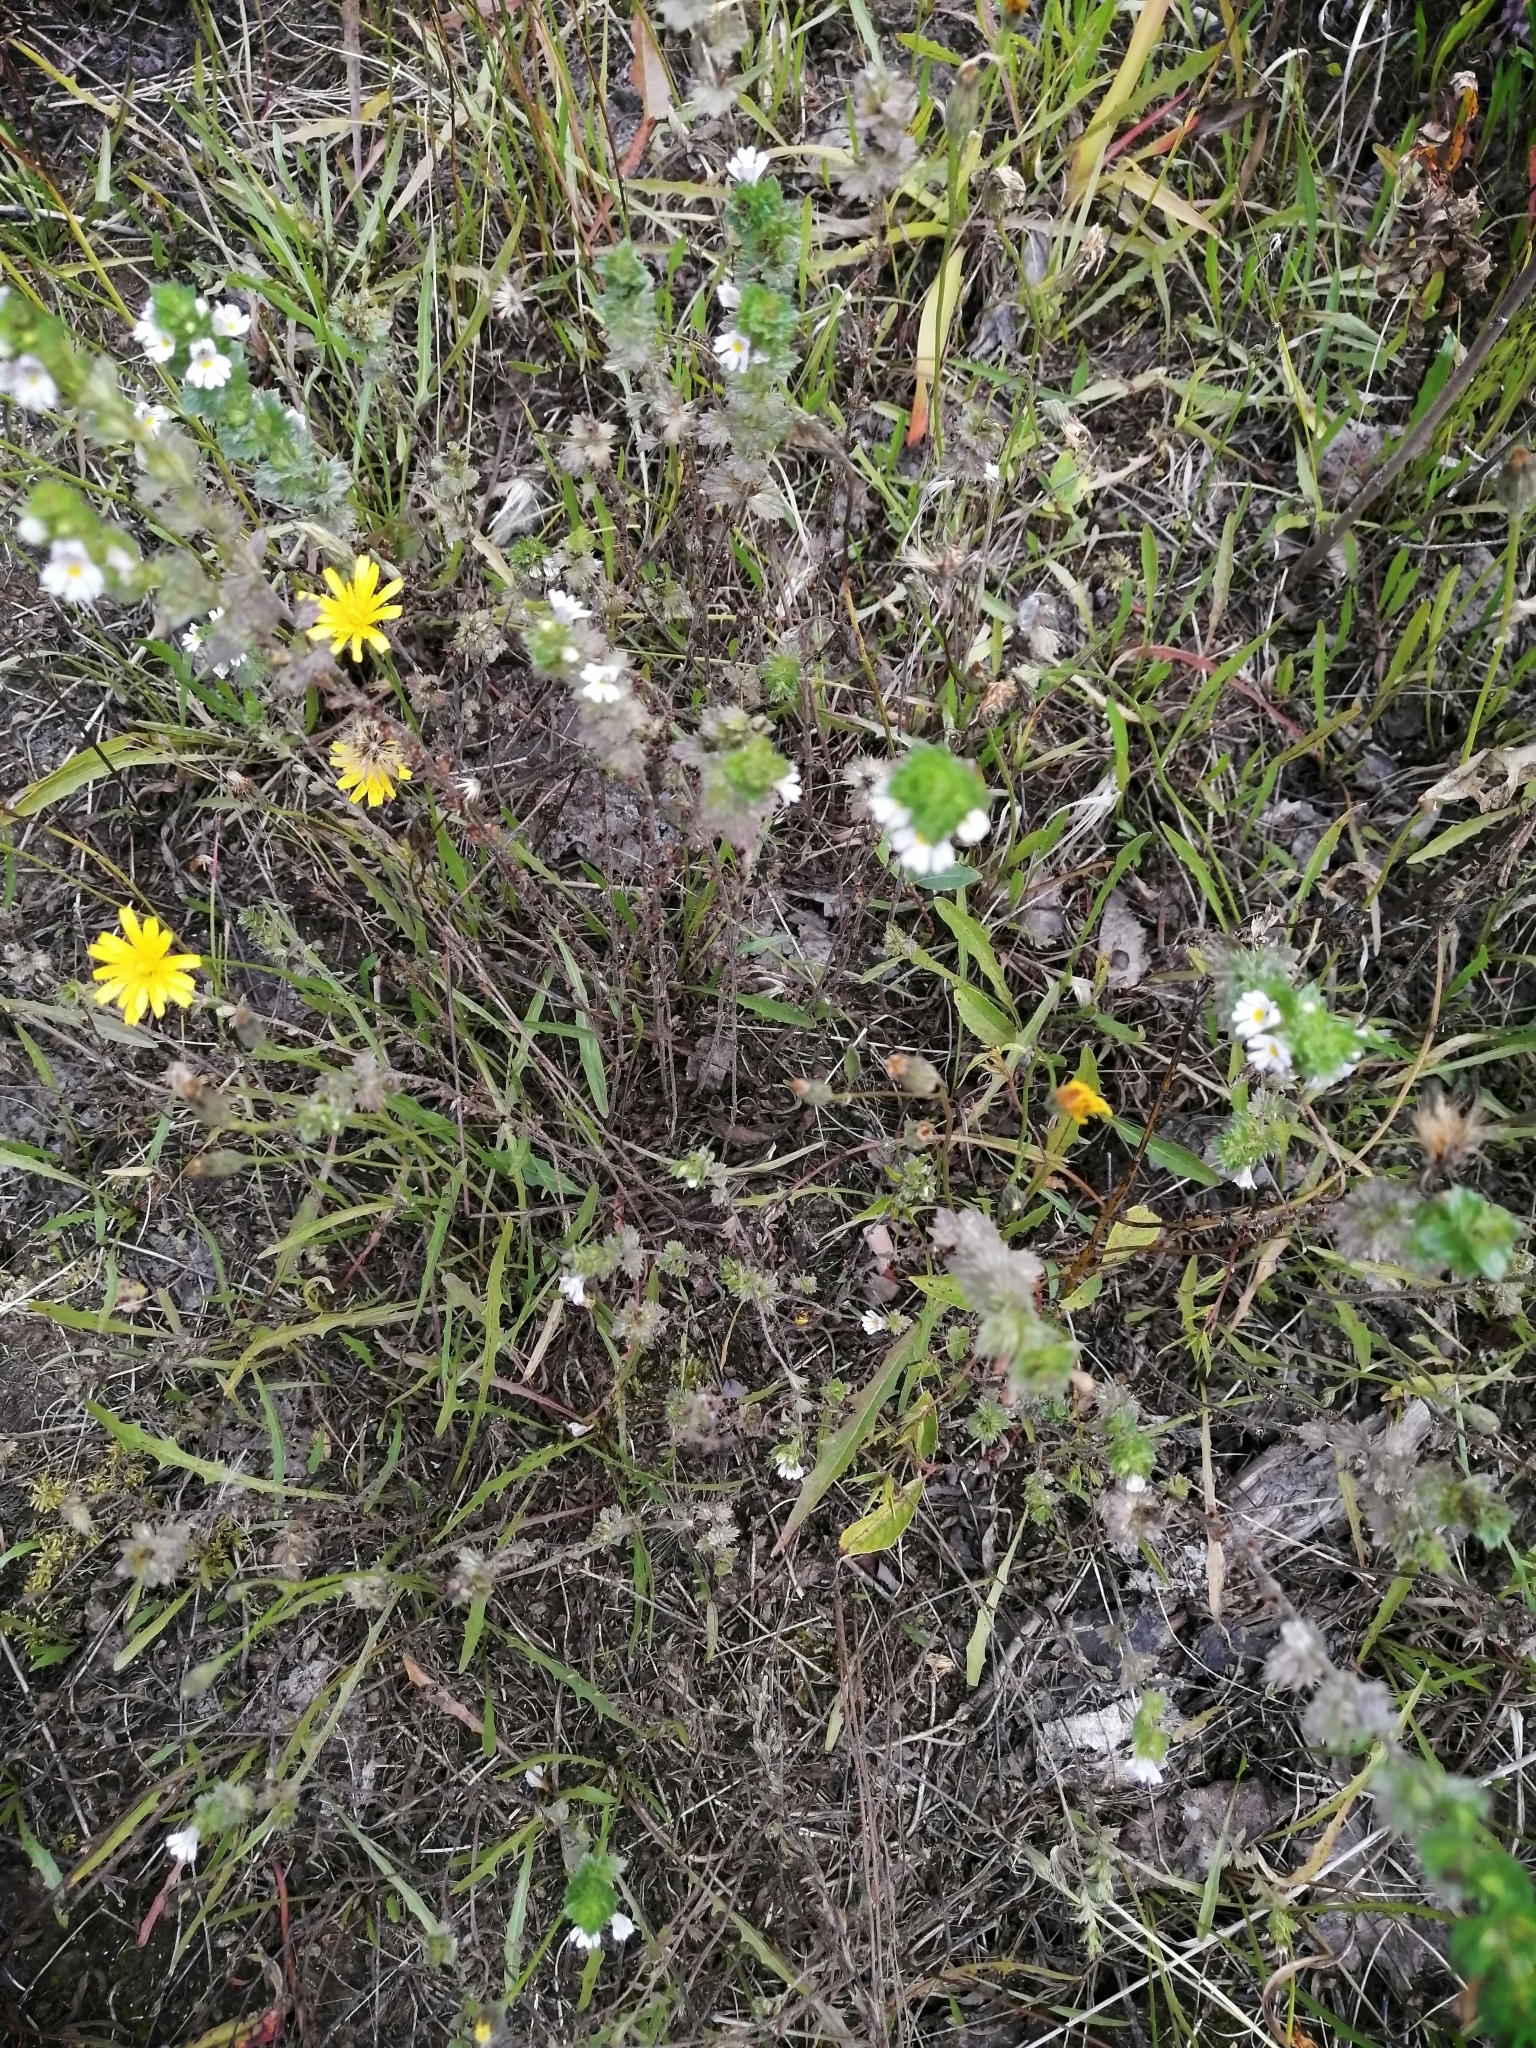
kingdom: Plantae
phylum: Tracheophyta
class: Magnoliopsida
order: Lamiales
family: Orobanchaceae
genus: Euphrasia
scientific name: Euphrasia
